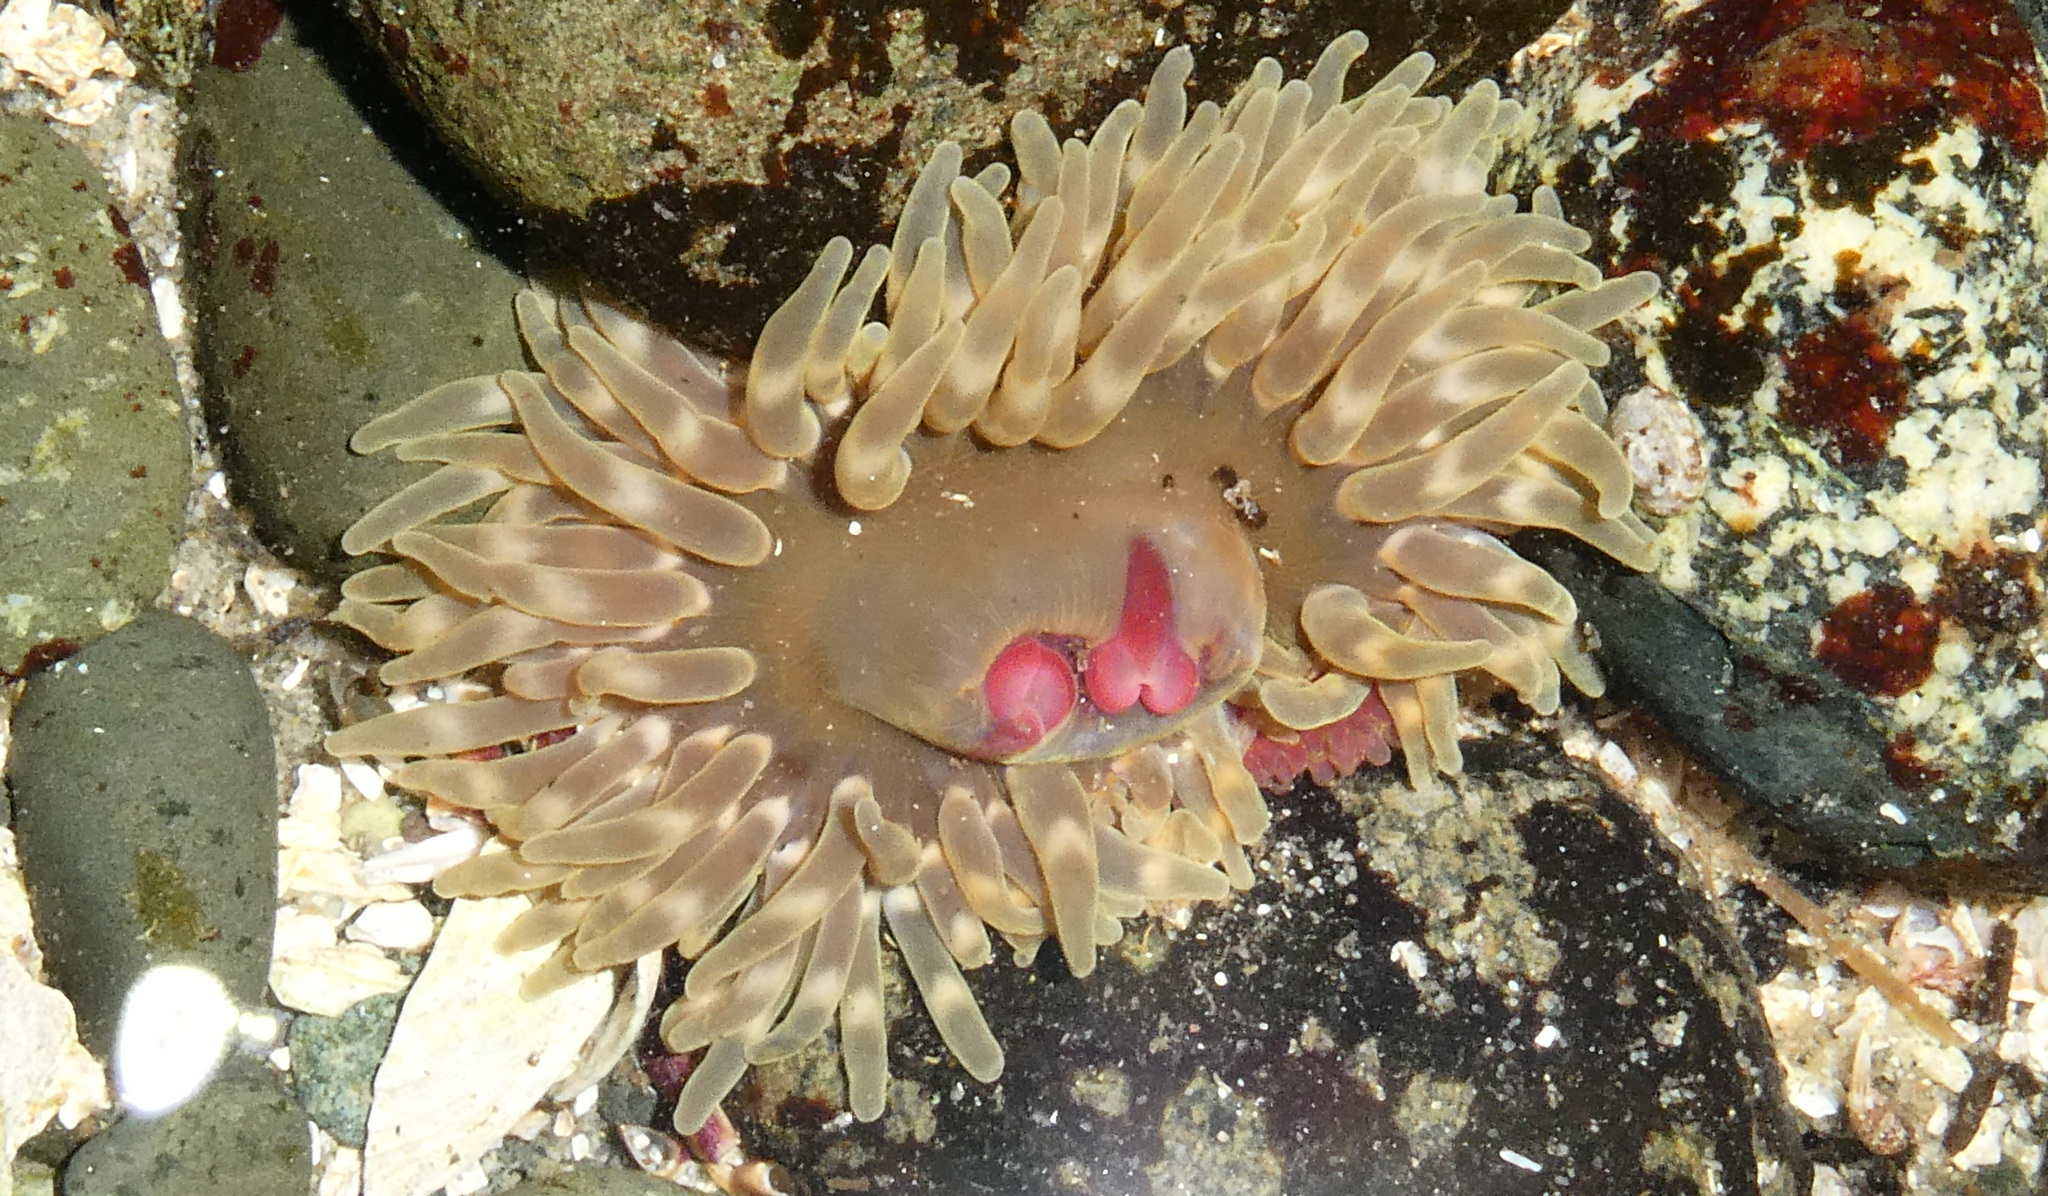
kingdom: Animalia
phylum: Cnidaria
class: Anthozoa
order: Actiniaria
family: Actiniidae
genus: Urticina
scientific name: Urticina clandestina
